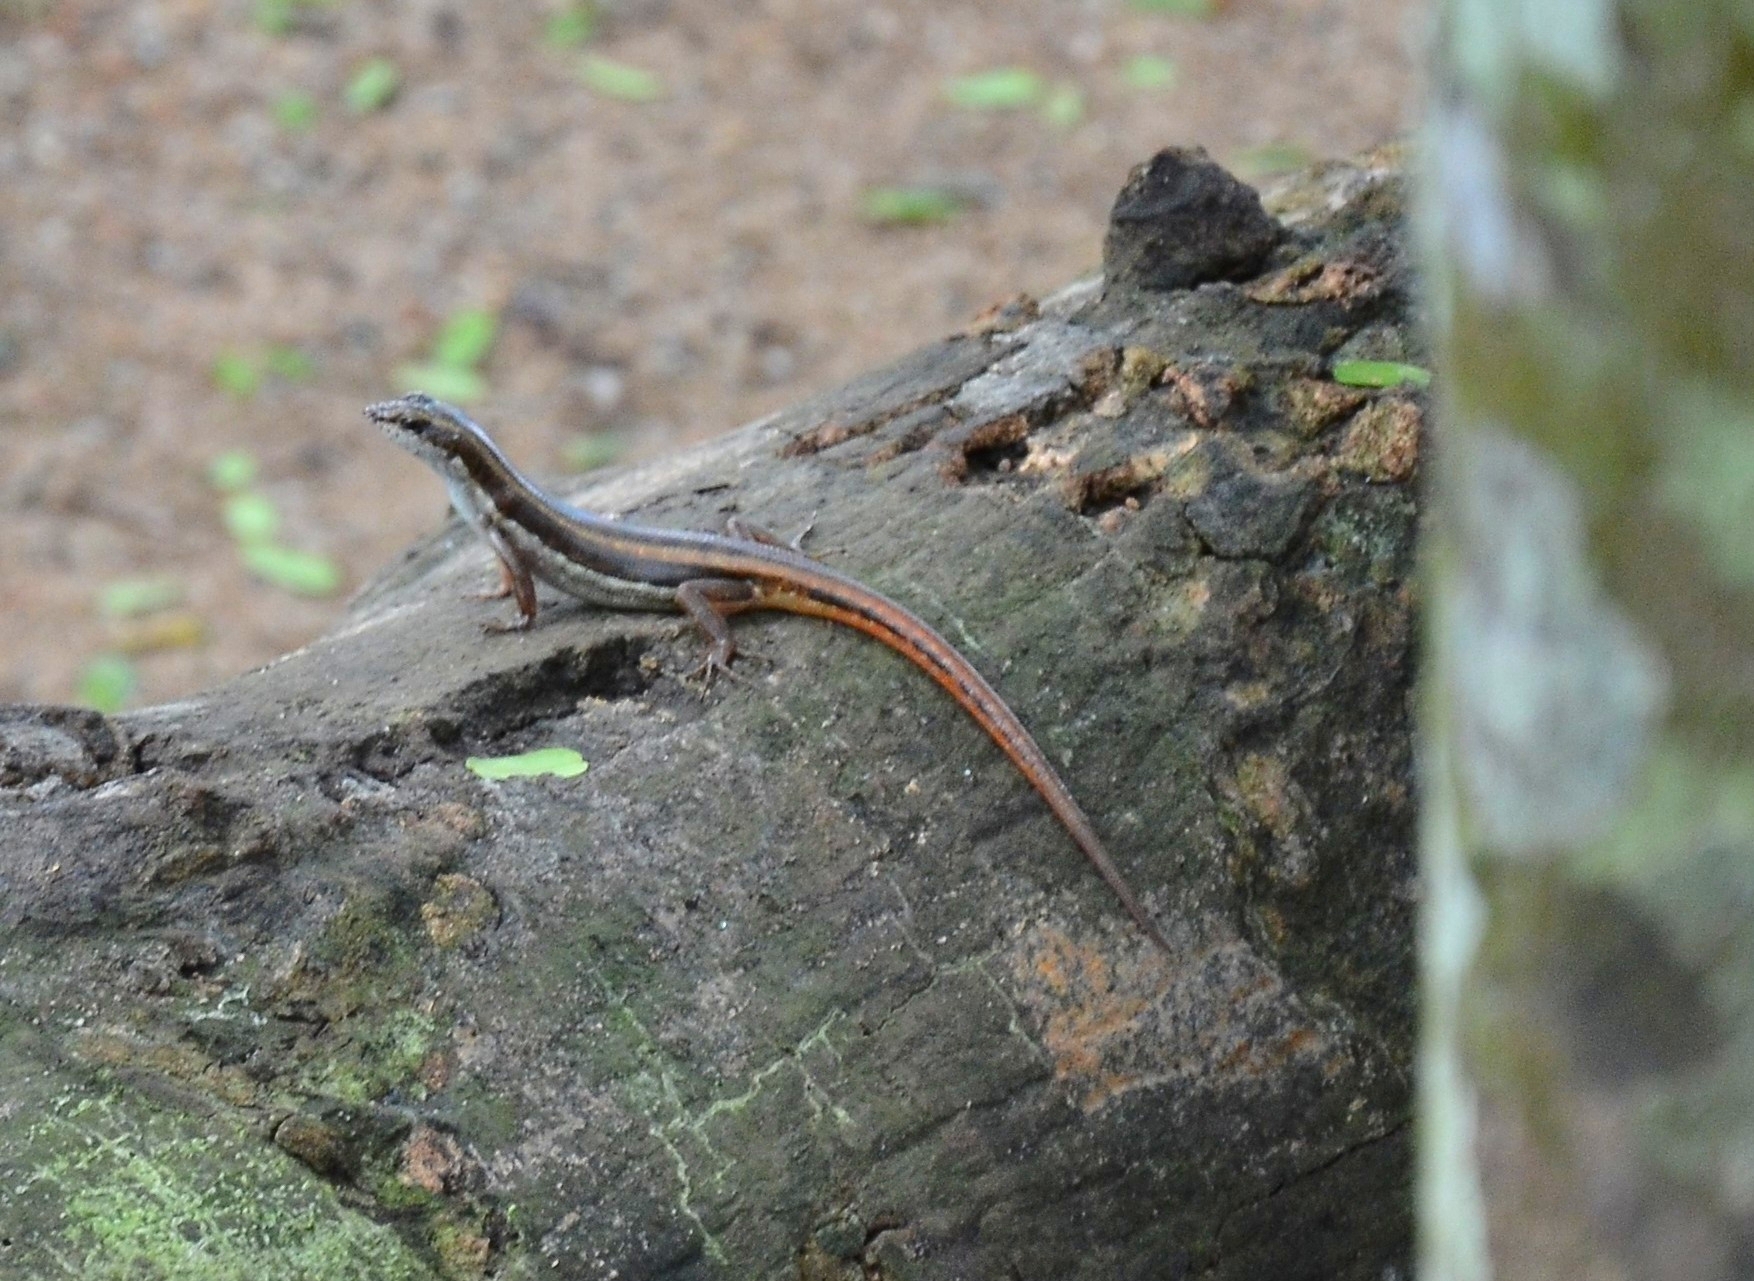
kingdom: Animalia
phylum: Chordata
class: Squamata
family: Scincidae
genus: Sphenomorphus
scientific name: Sphenomorphus dussumieri
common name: Dussumier's forest skink
